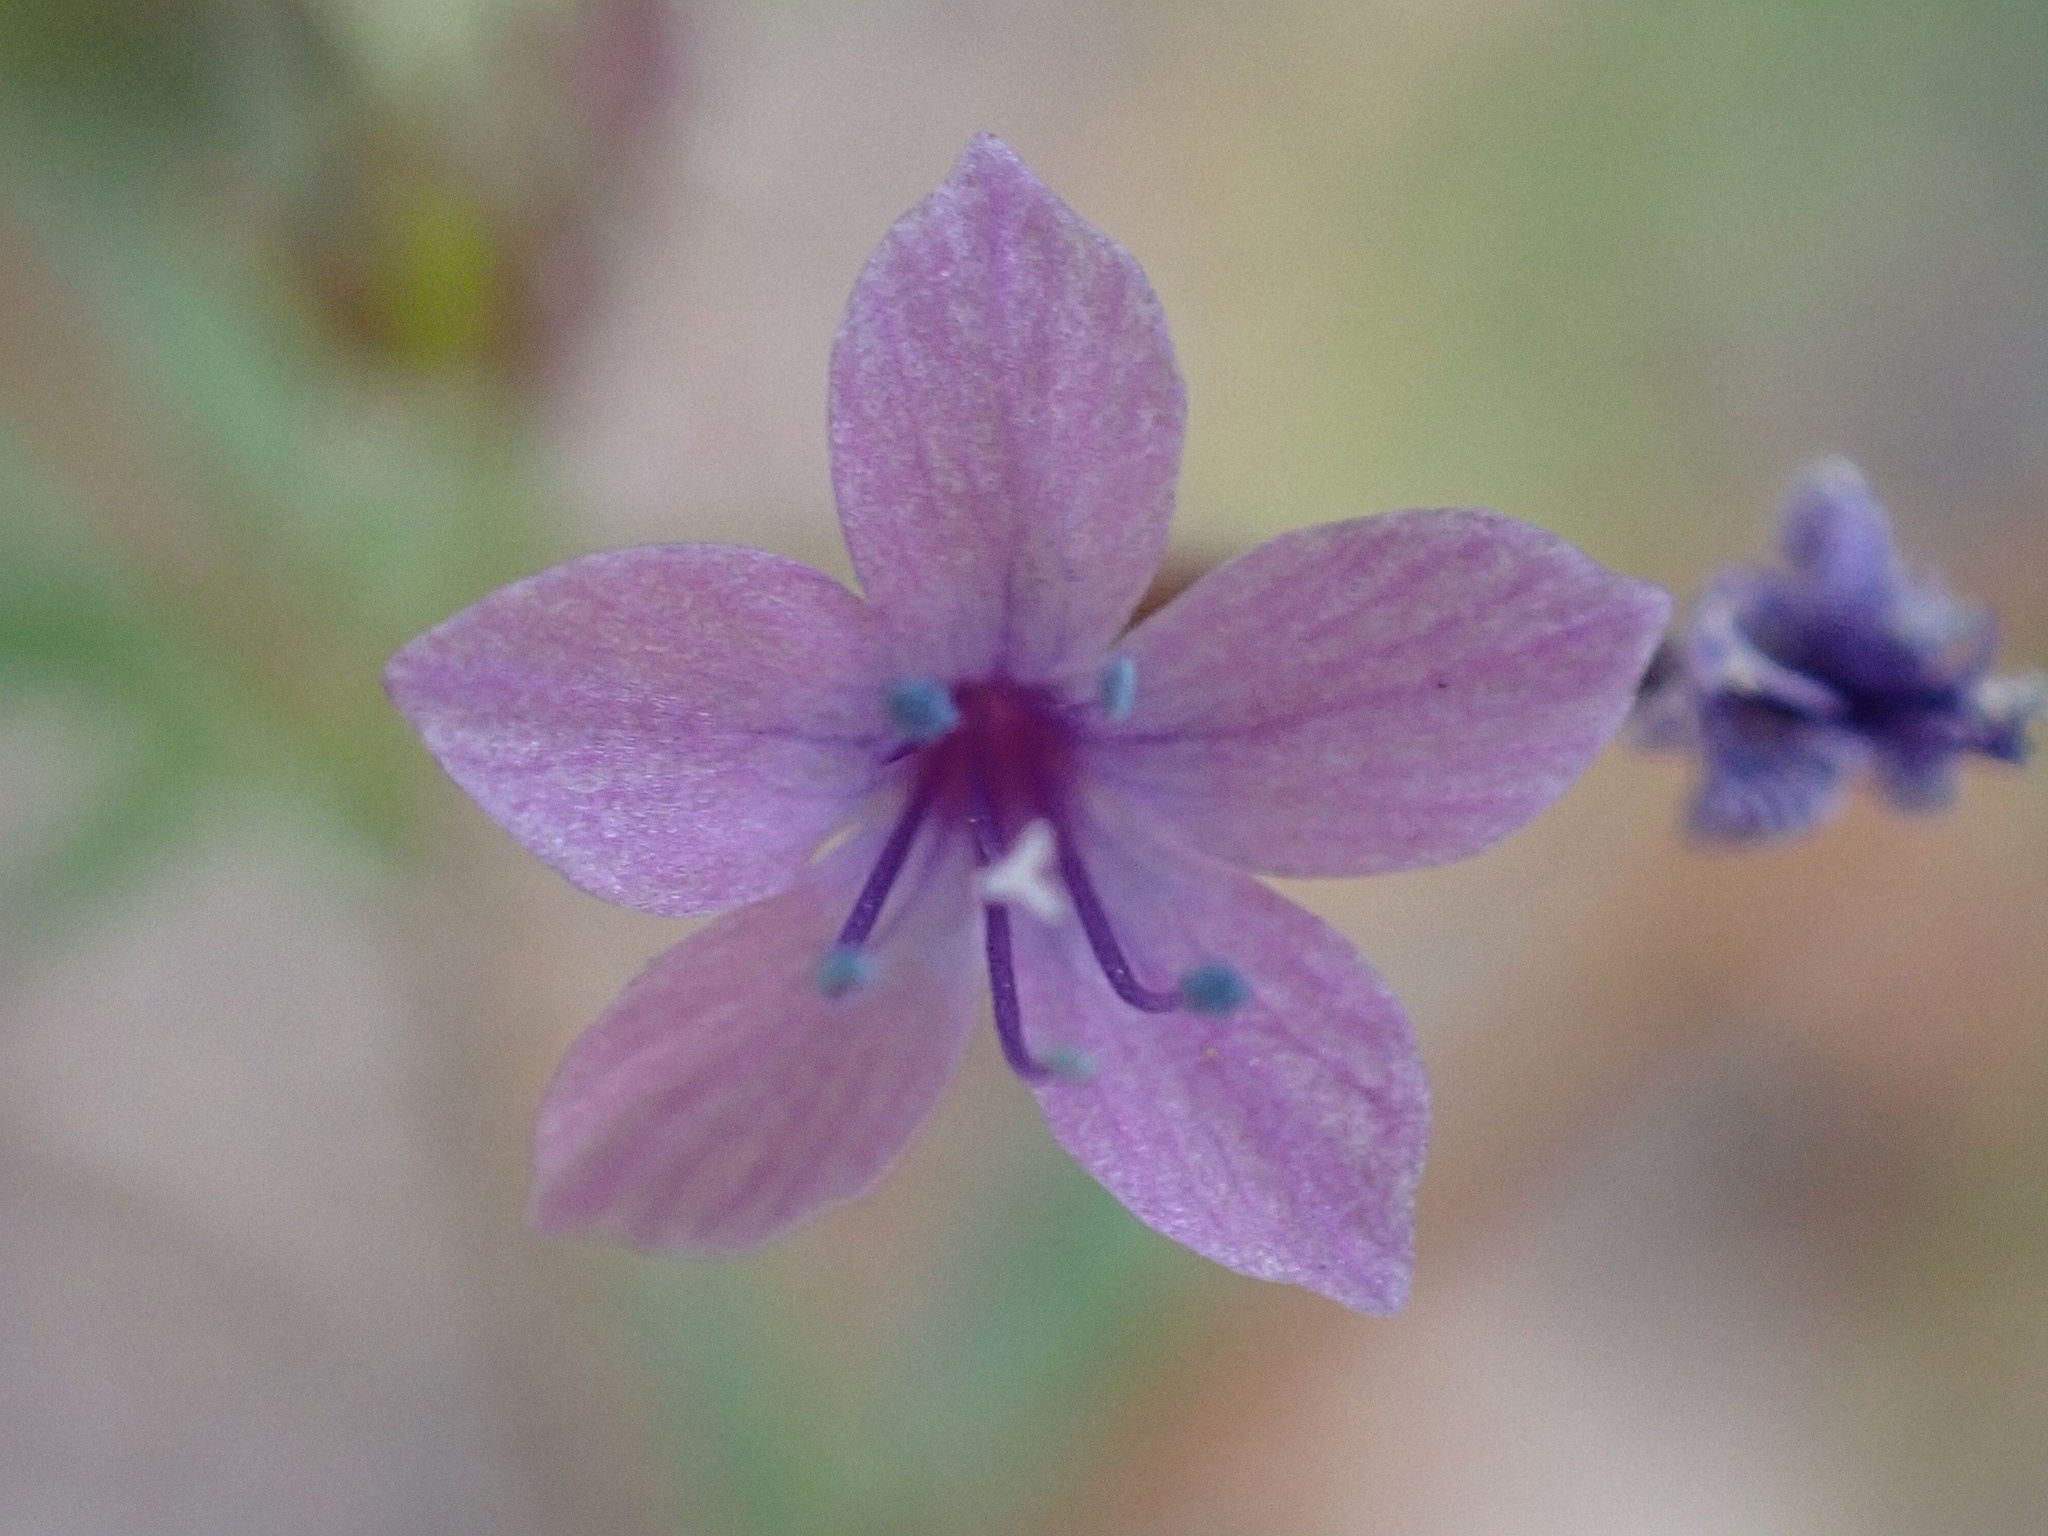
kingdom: Plantae
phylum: Tracheophyta
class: Magnoliopsida
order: Ericales
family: Polemoniaceae
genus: Allophyllum
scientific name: Allophyllum glutinosum
